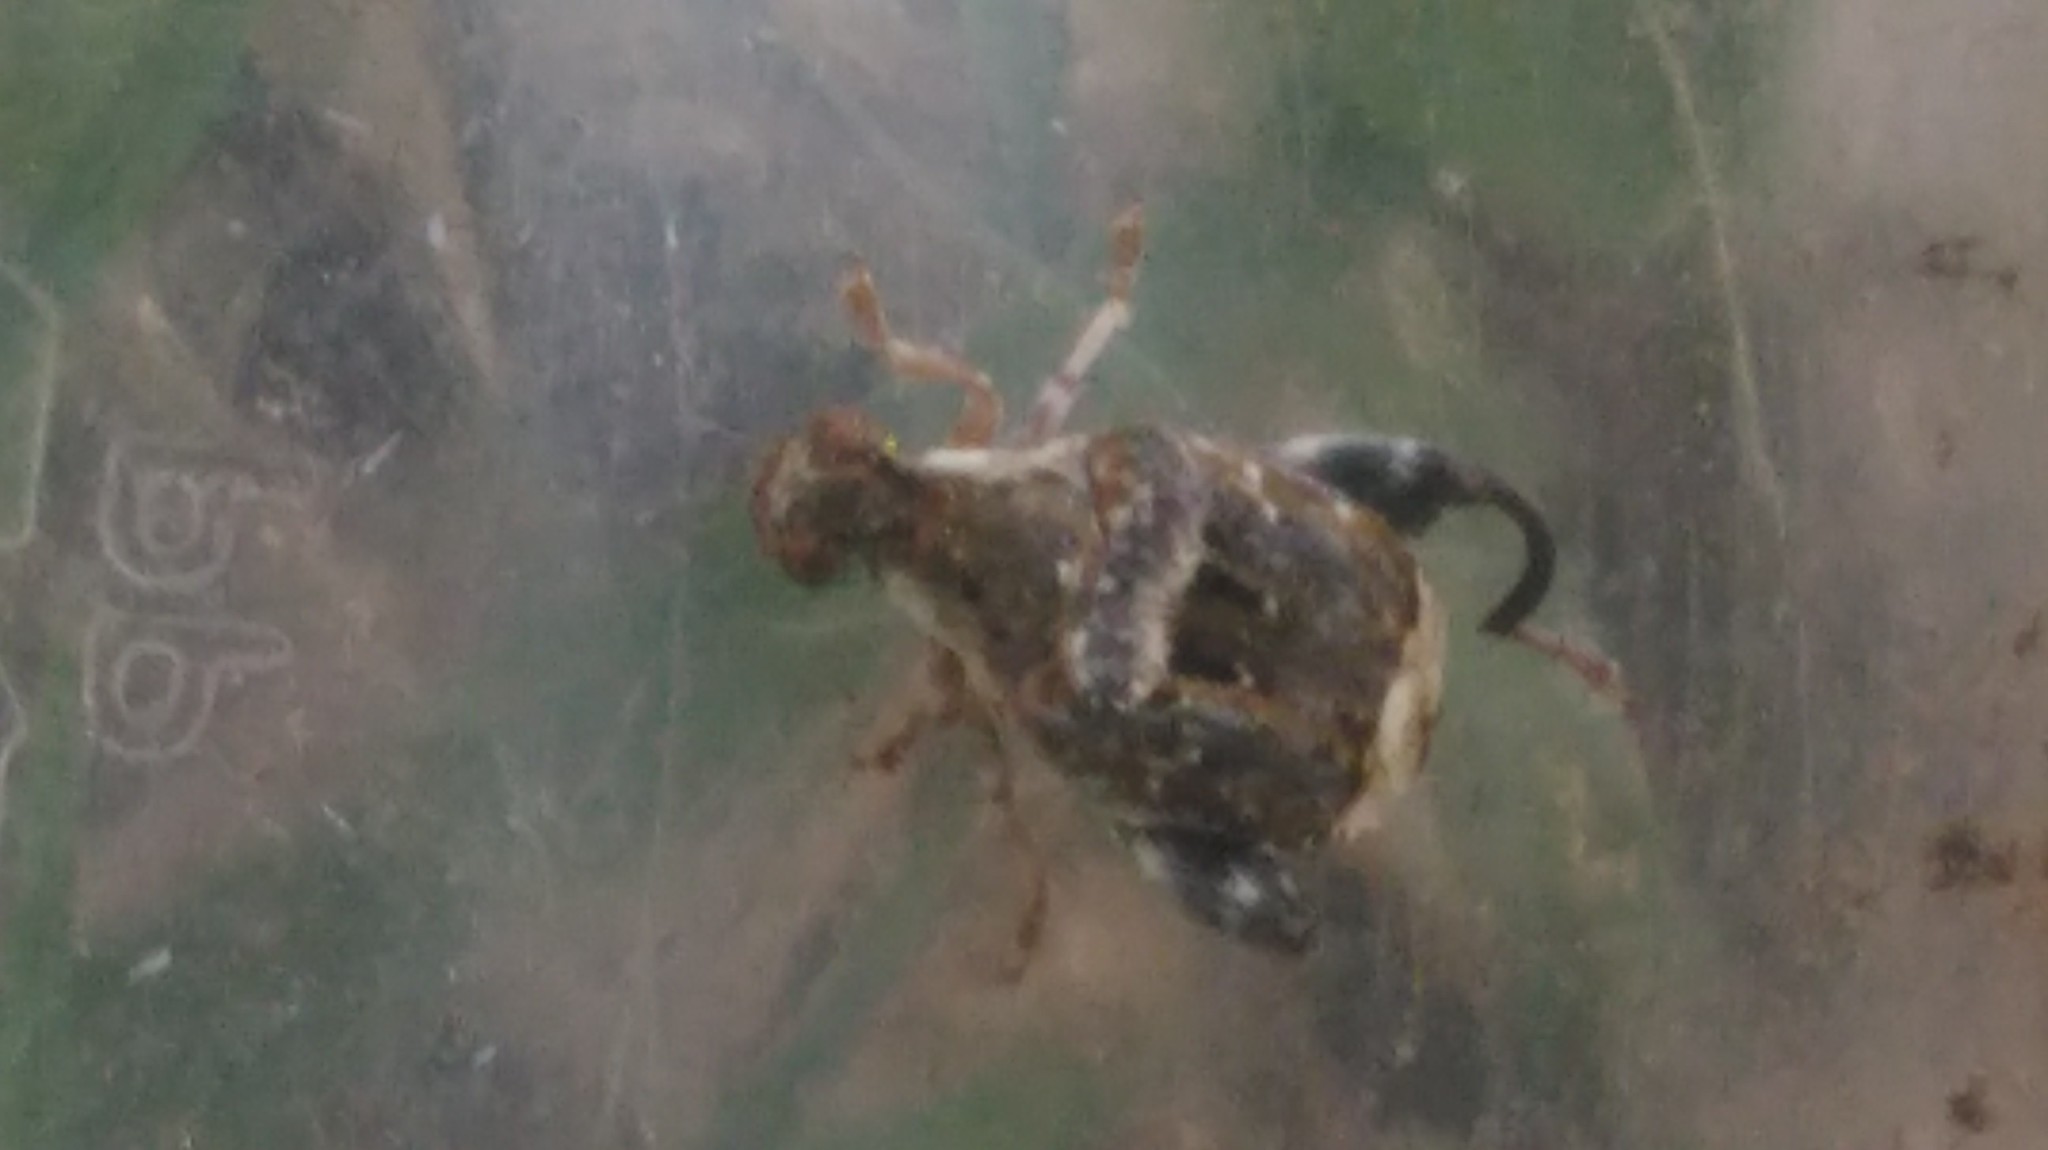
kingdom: Animalia
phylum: Arthropoda
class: Insecta
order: Coleoptera
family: Chrysomelidae
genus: Penthobruchus
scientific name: Penthobruchus
